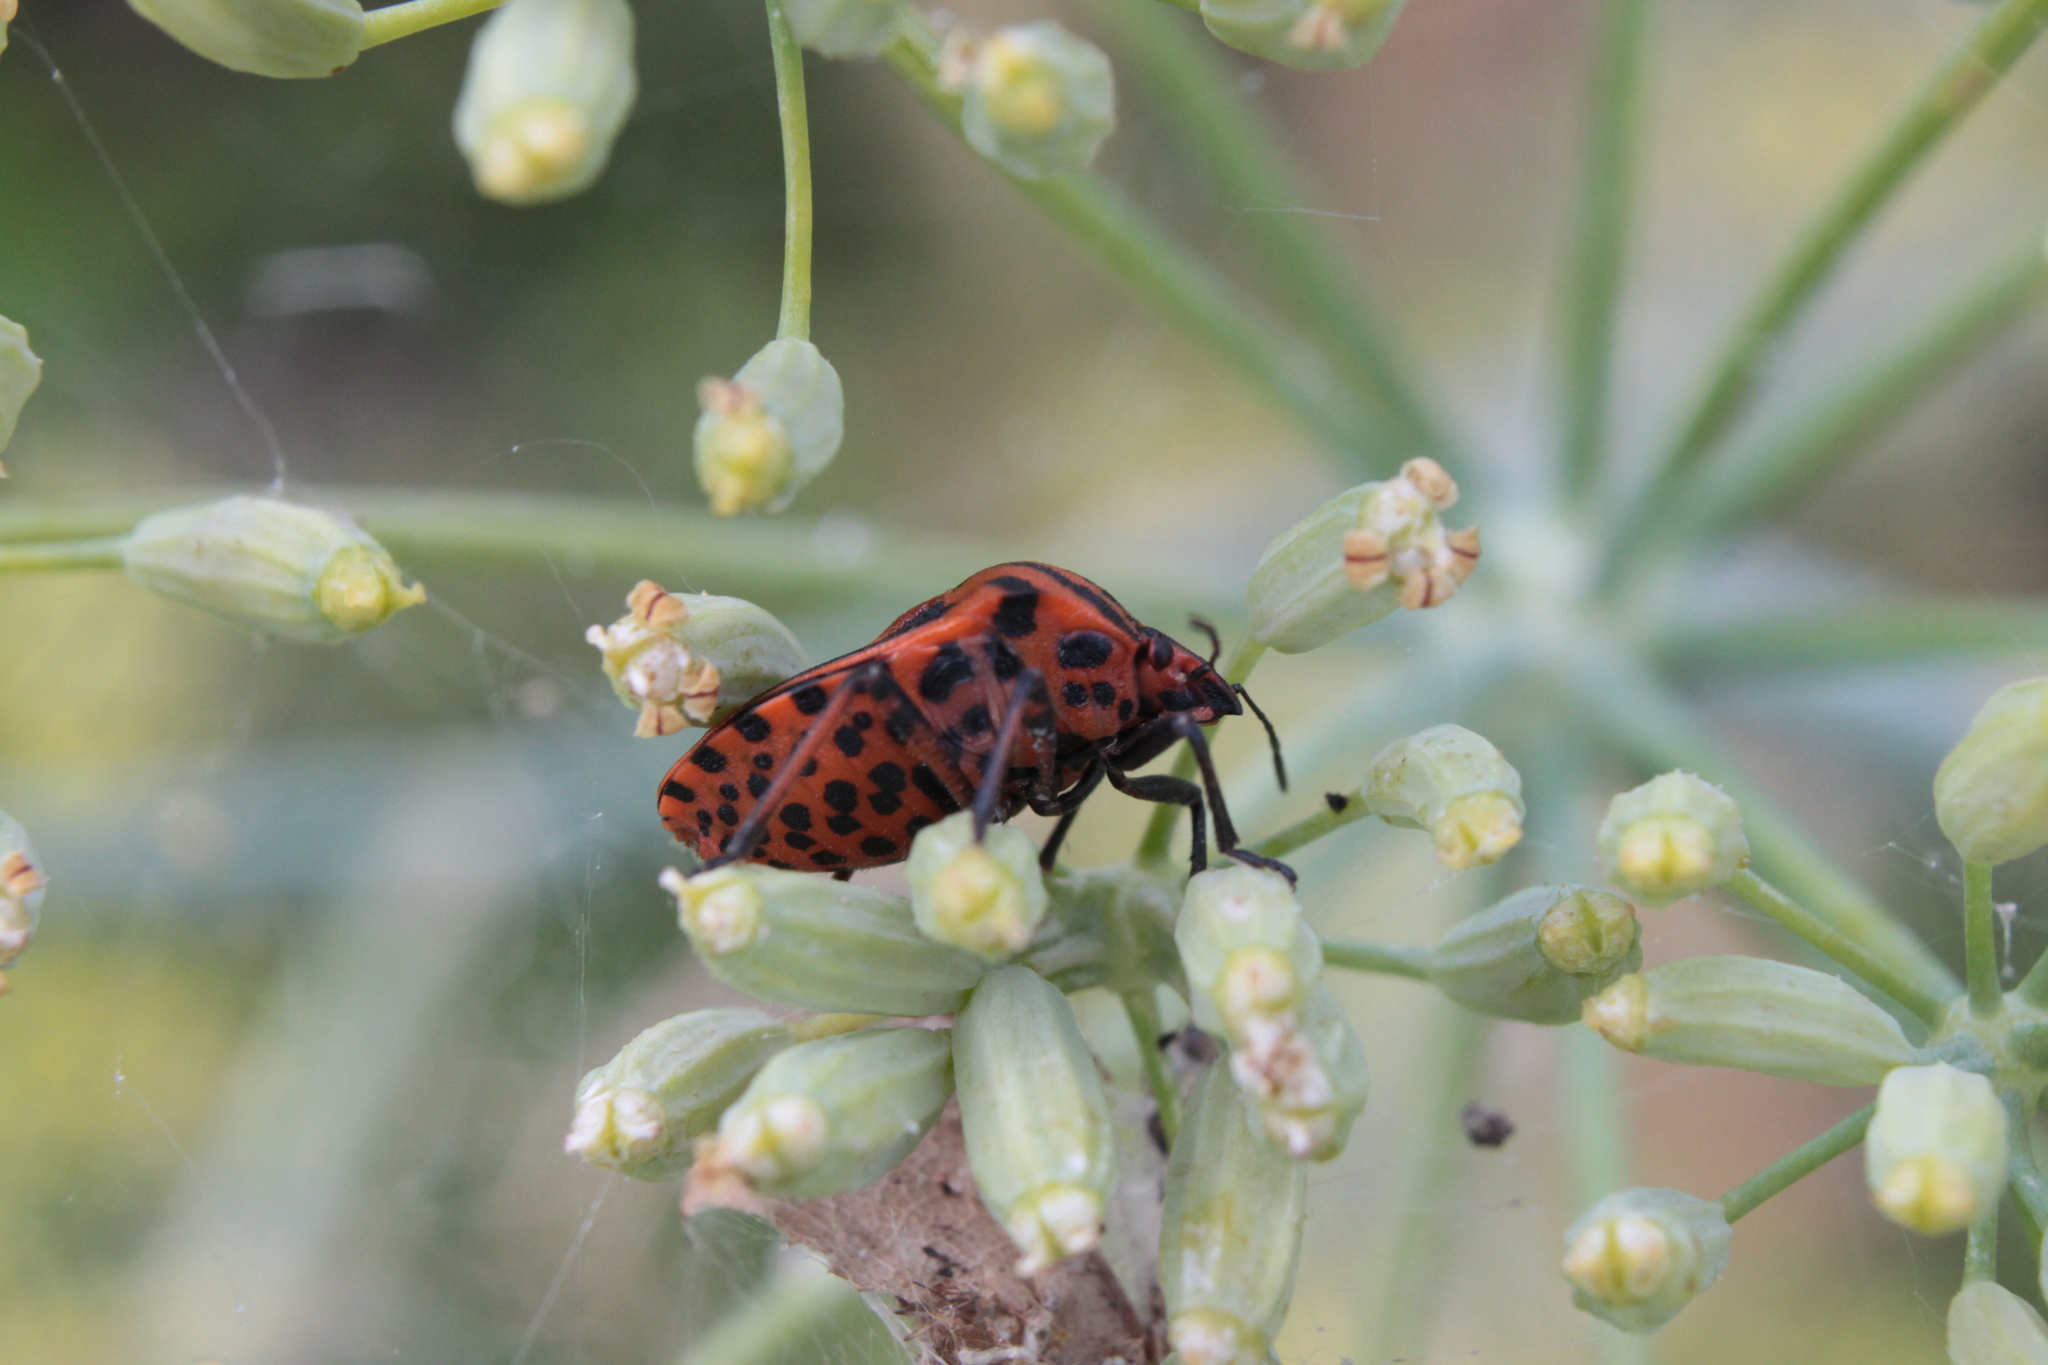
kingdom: Animalia
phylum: Arthropoda
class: Insecta
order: Hemiptera
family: Pentatomidae
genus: Graphosoma
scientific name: Graphosoma italicum
